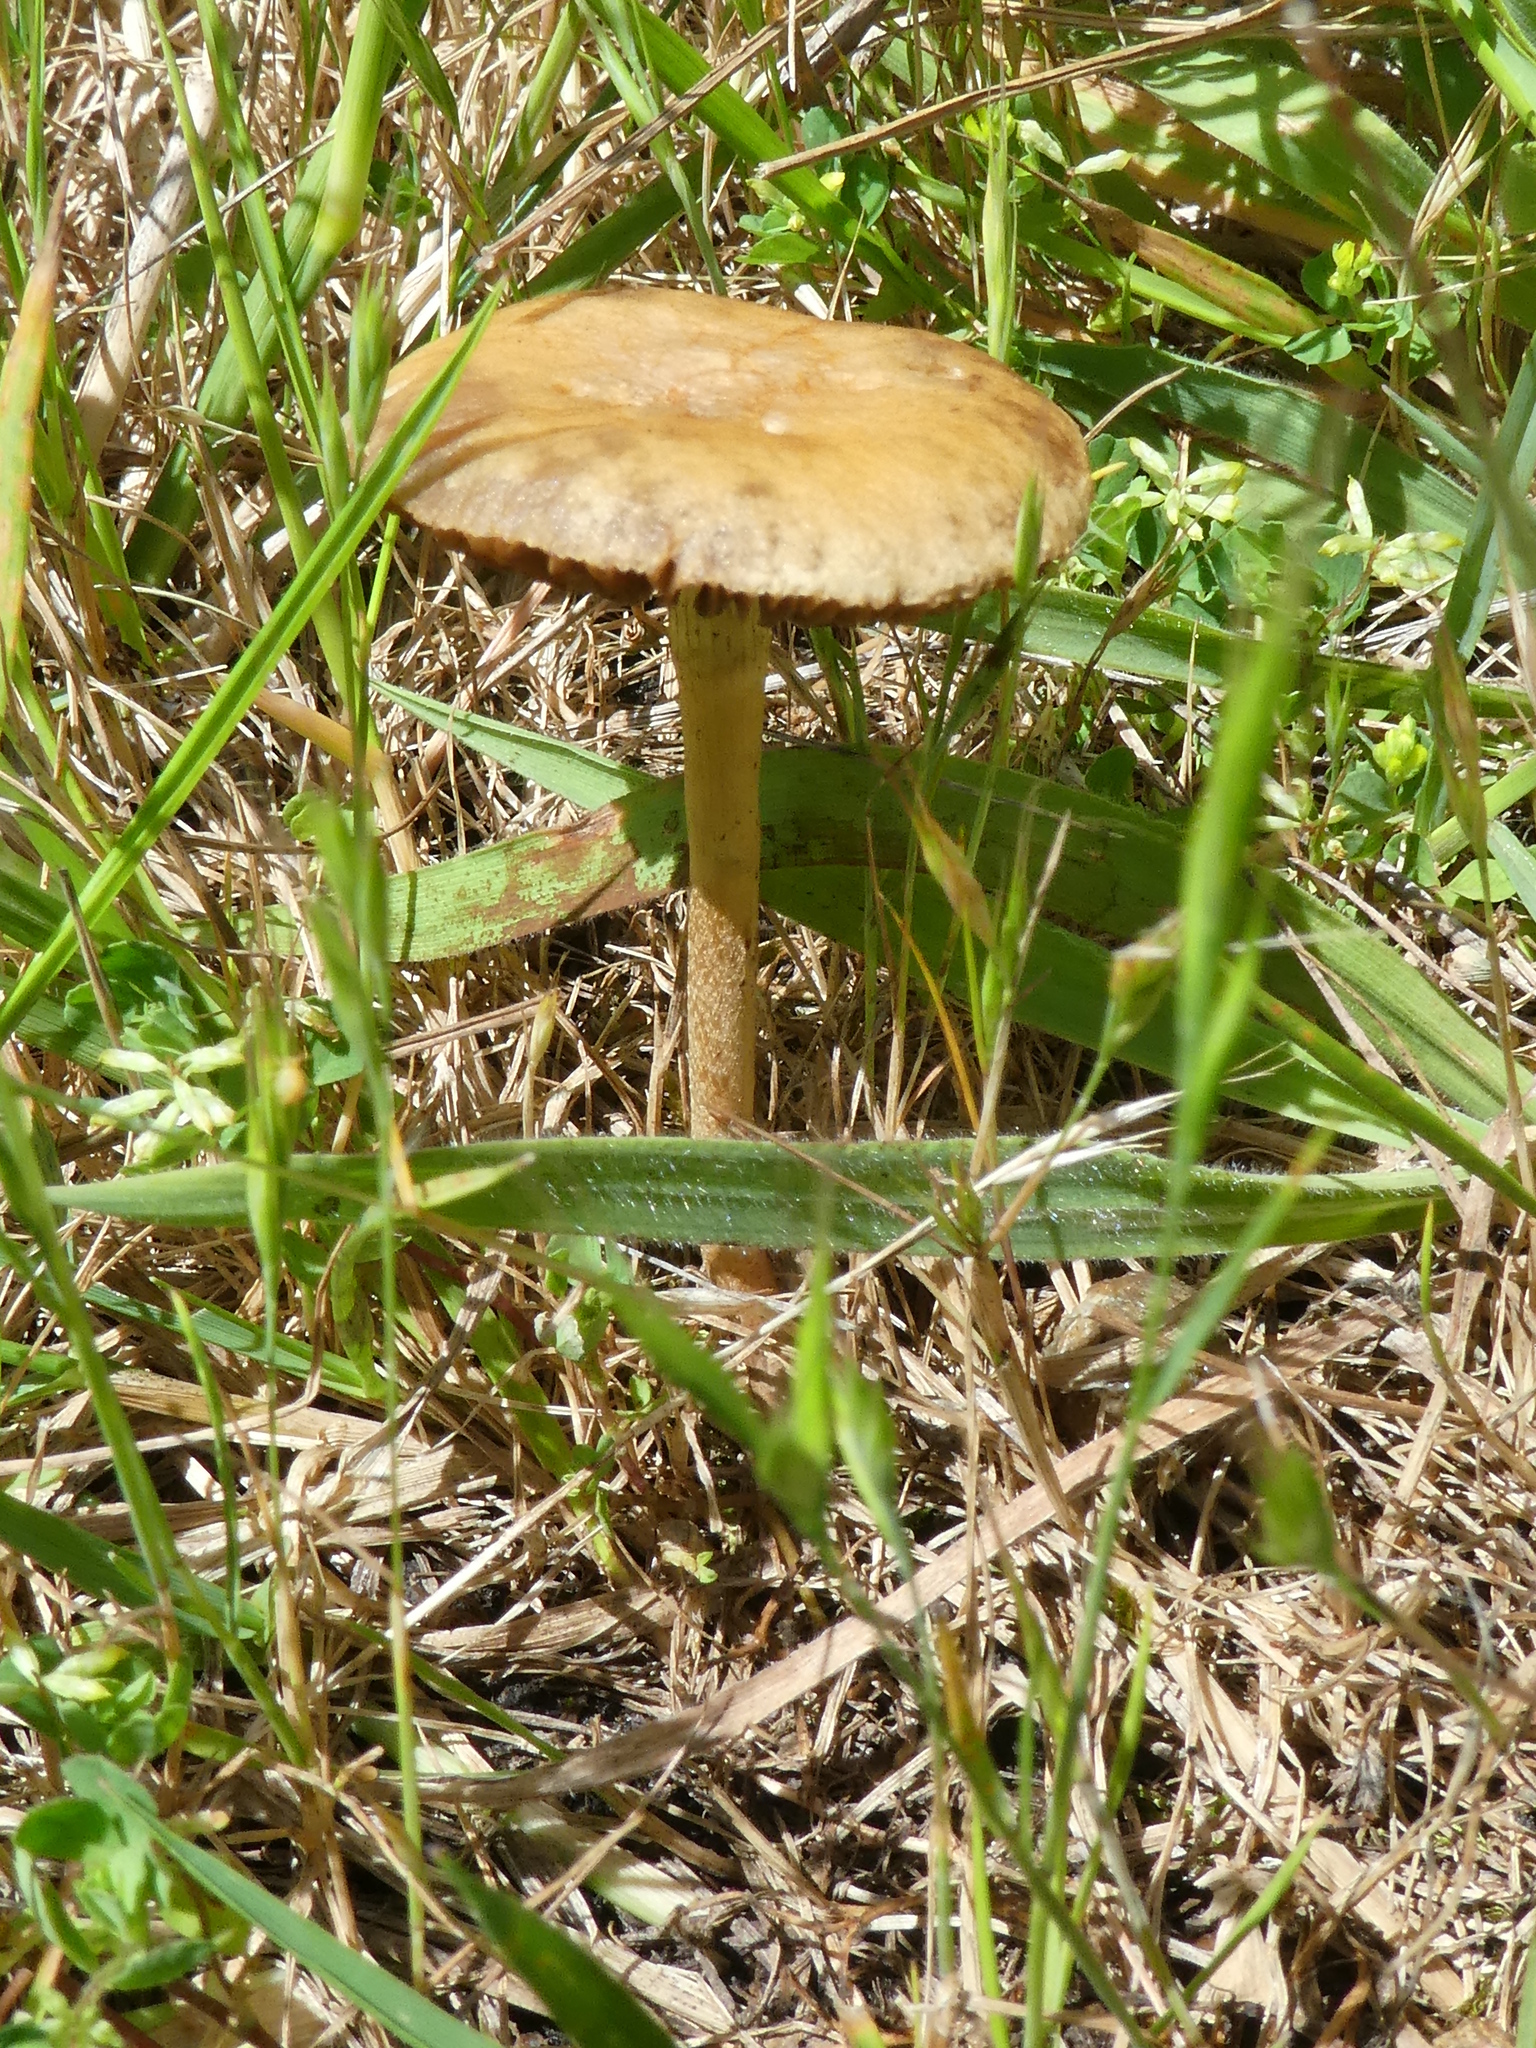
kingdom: Fungi
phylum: Basidiomycota
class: Agaricomycetes
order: Agaricales
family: Strophariaceae
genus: Agrocybe
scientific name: Agrocybe pediades
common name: Common fieldcap
